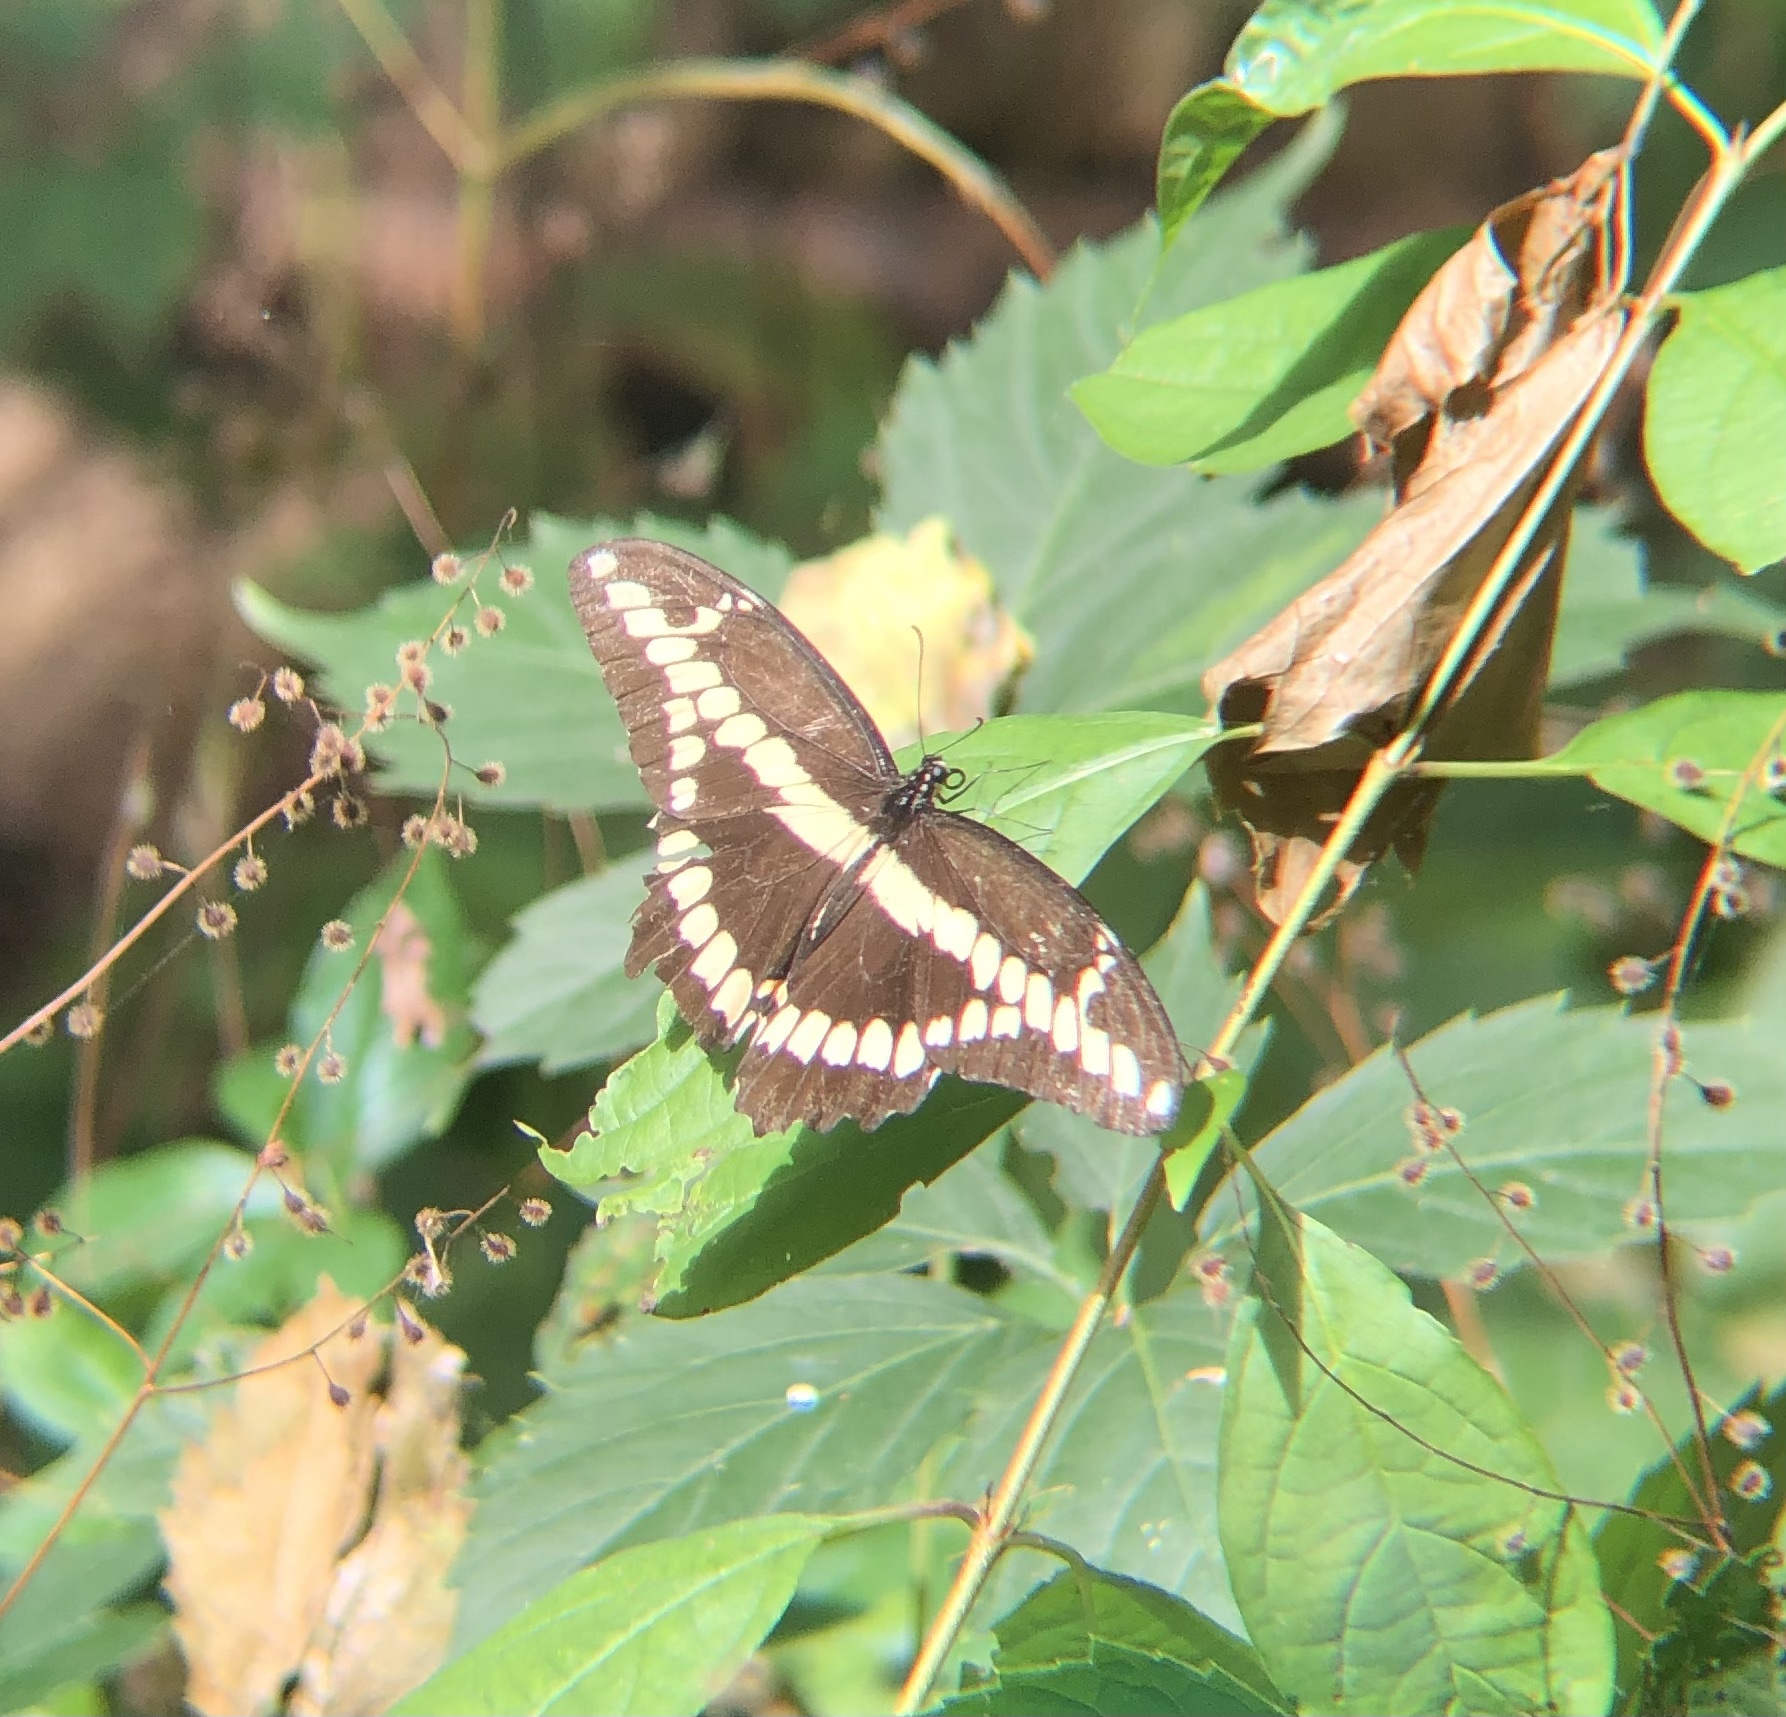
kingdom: Animalia
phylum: Arthropoda
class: Insecta
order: Lepidoptera
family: Papilionidae
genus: Papilio
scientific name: Papilio cresphontes
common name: Giant swallowtail
